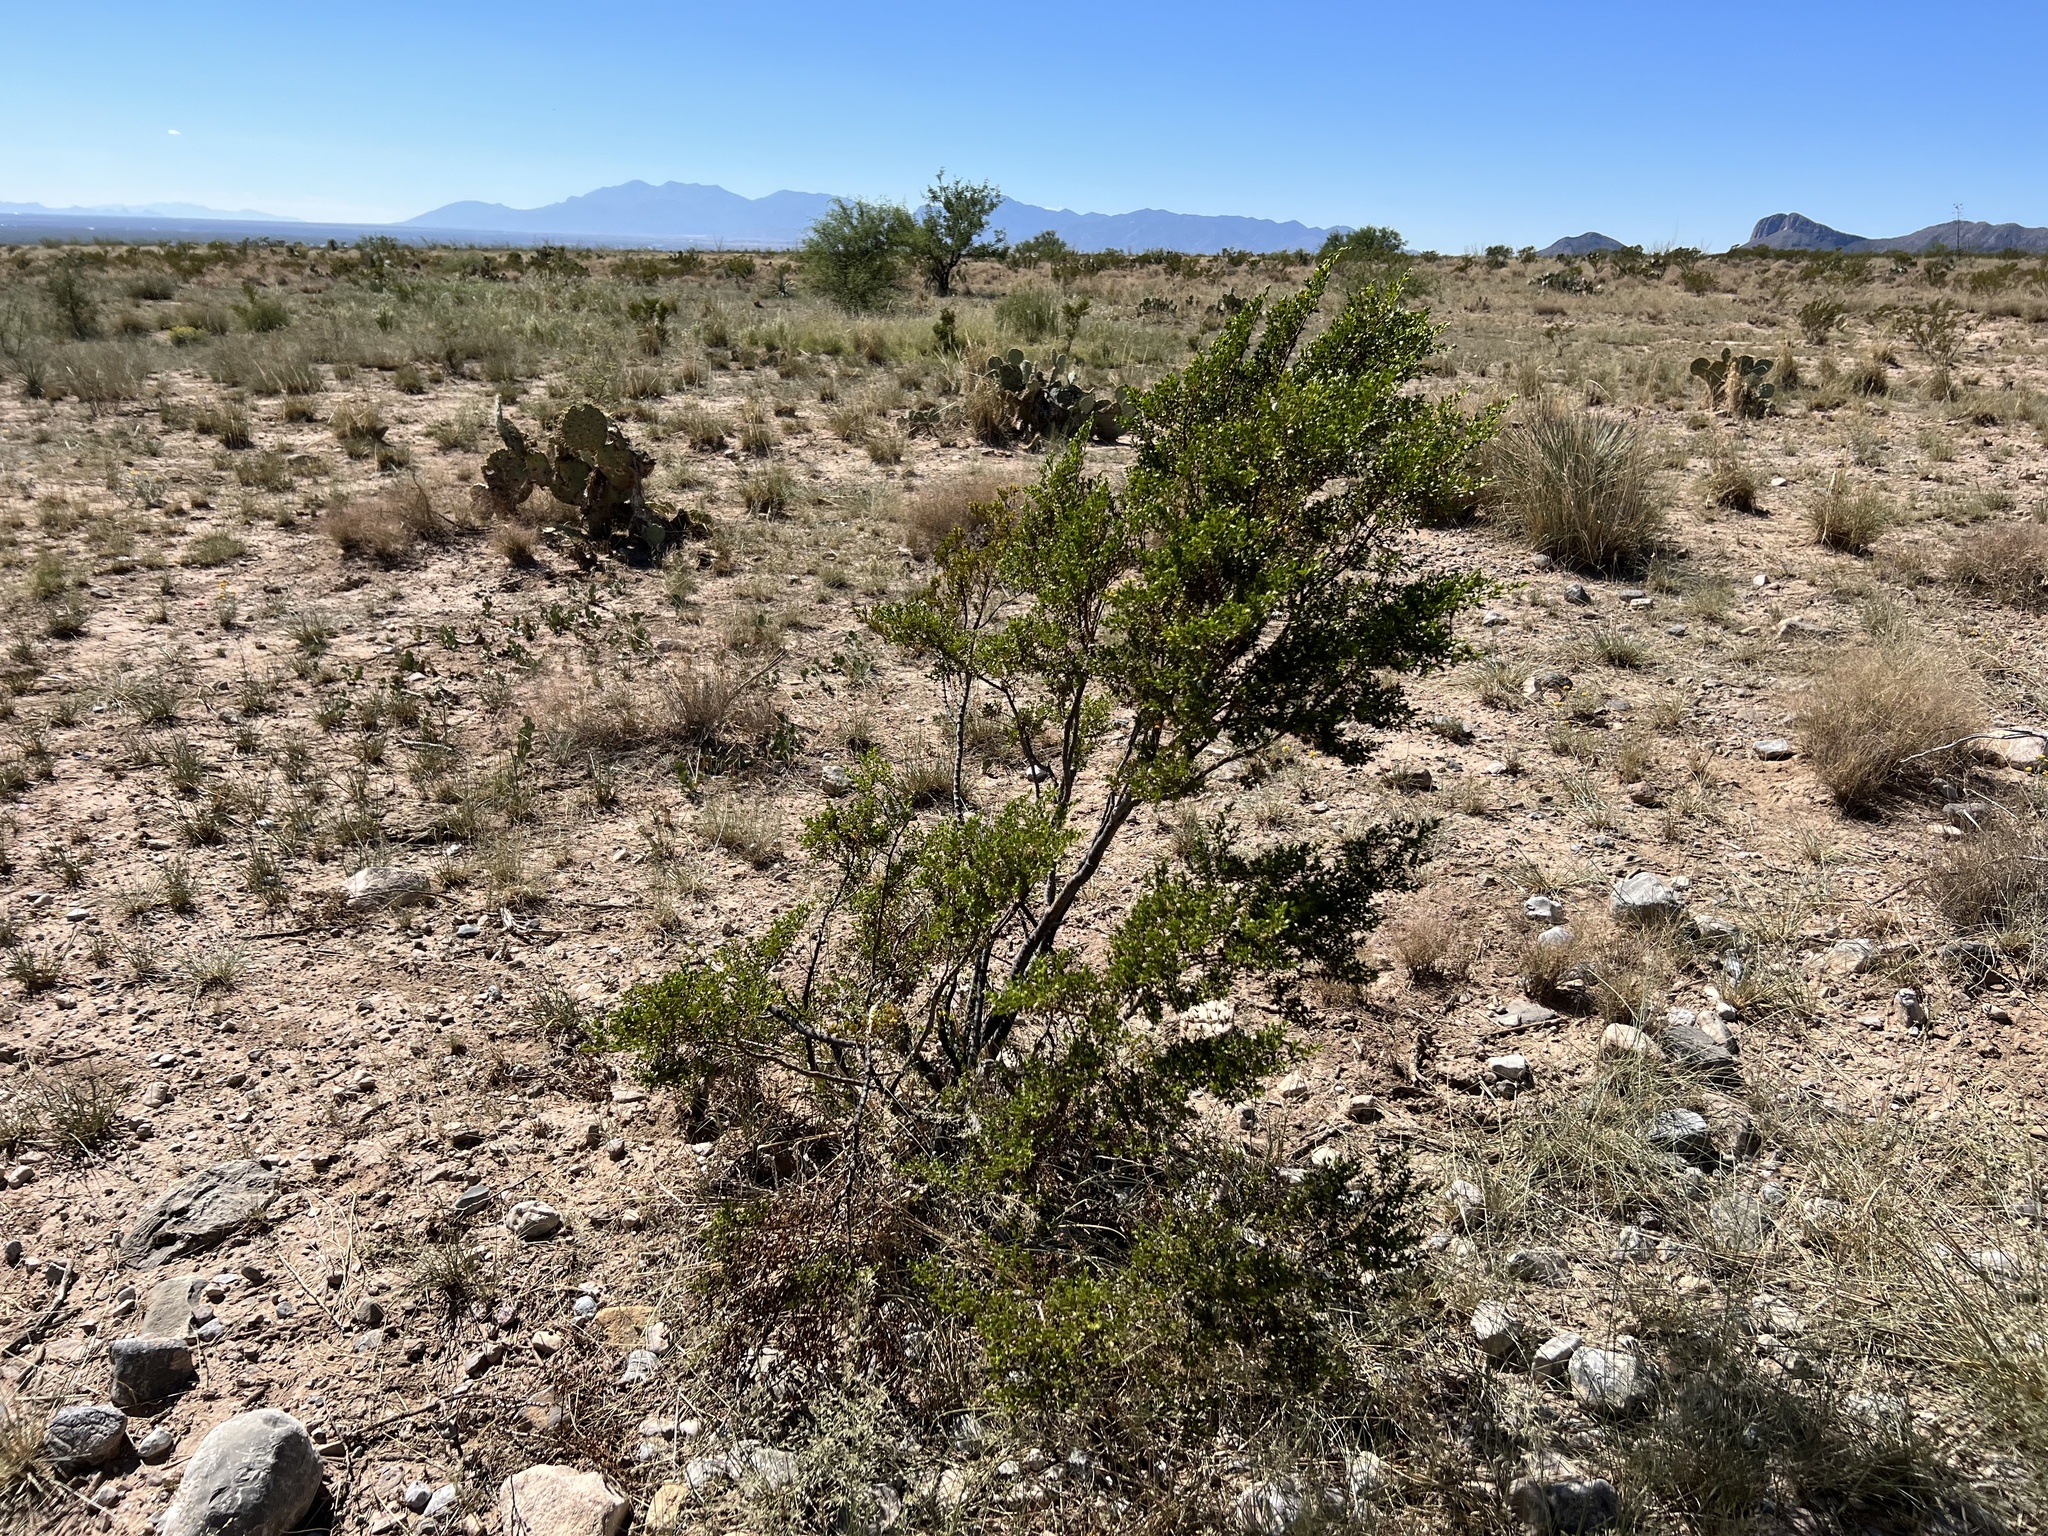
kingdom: Plantae
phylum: Tracheophyta
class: Magnoliopsida
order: Zygophyllales
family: Zygophyllaceae
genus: Larrea
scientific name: Larrea tridentata
